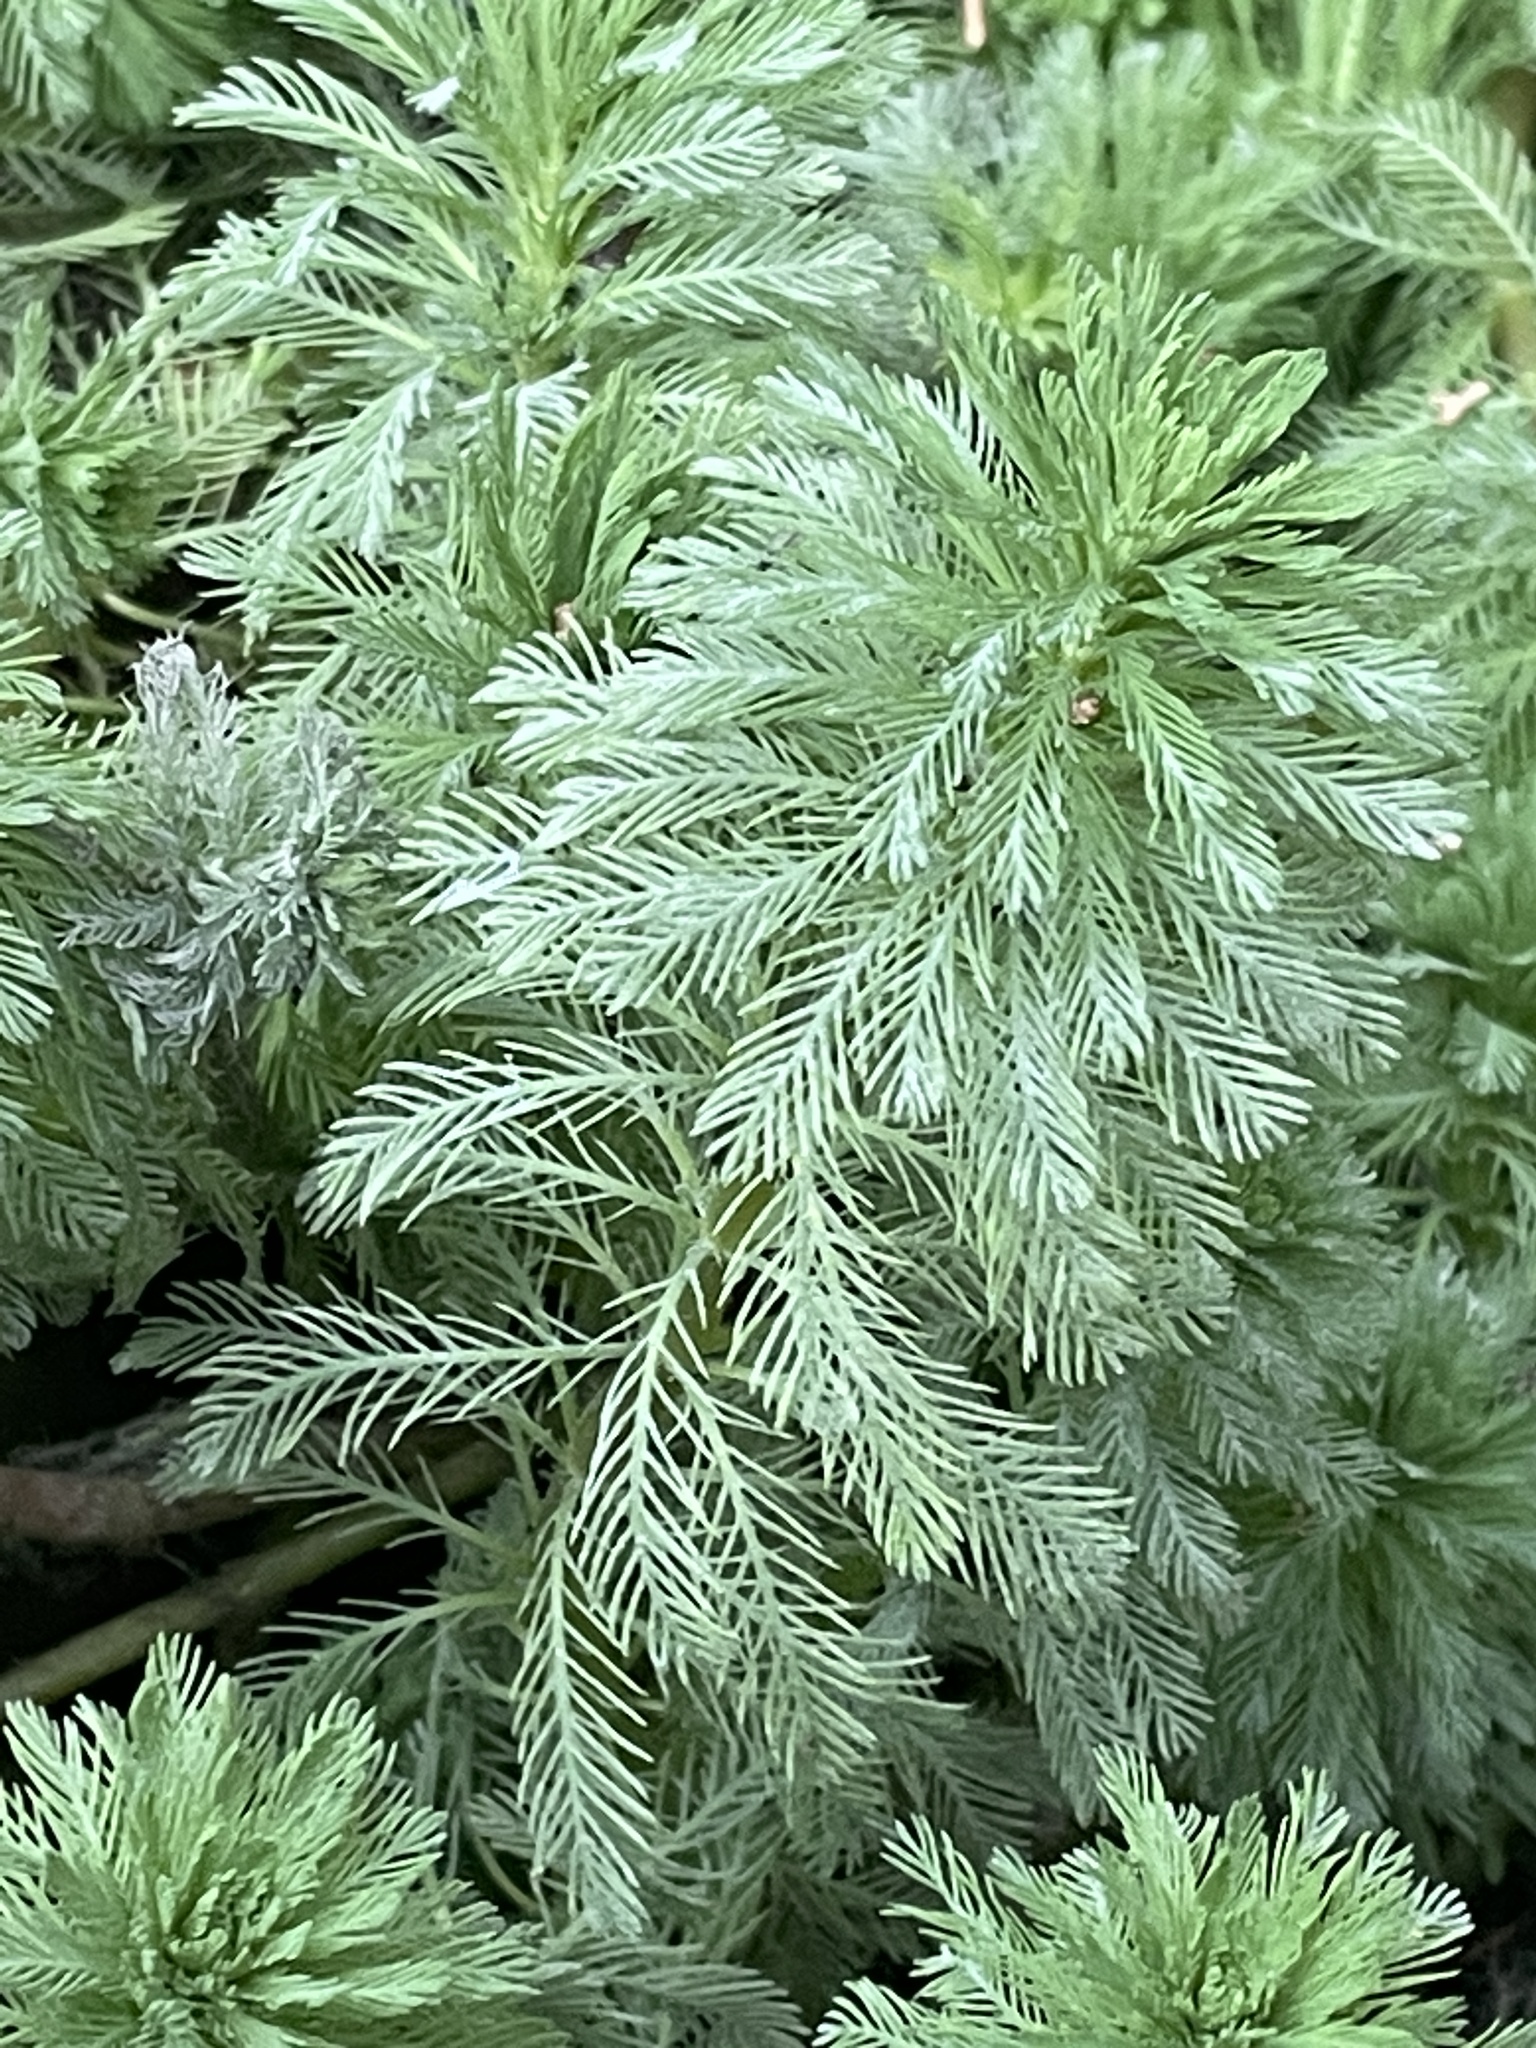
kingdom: Plantae
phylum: Tracheophyta
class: Magnoliopsida
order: Saxifragales
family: Haloragaceae
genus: Myriophyllum
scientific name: Myriophyllum aquaticum
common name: Parrot's feather
